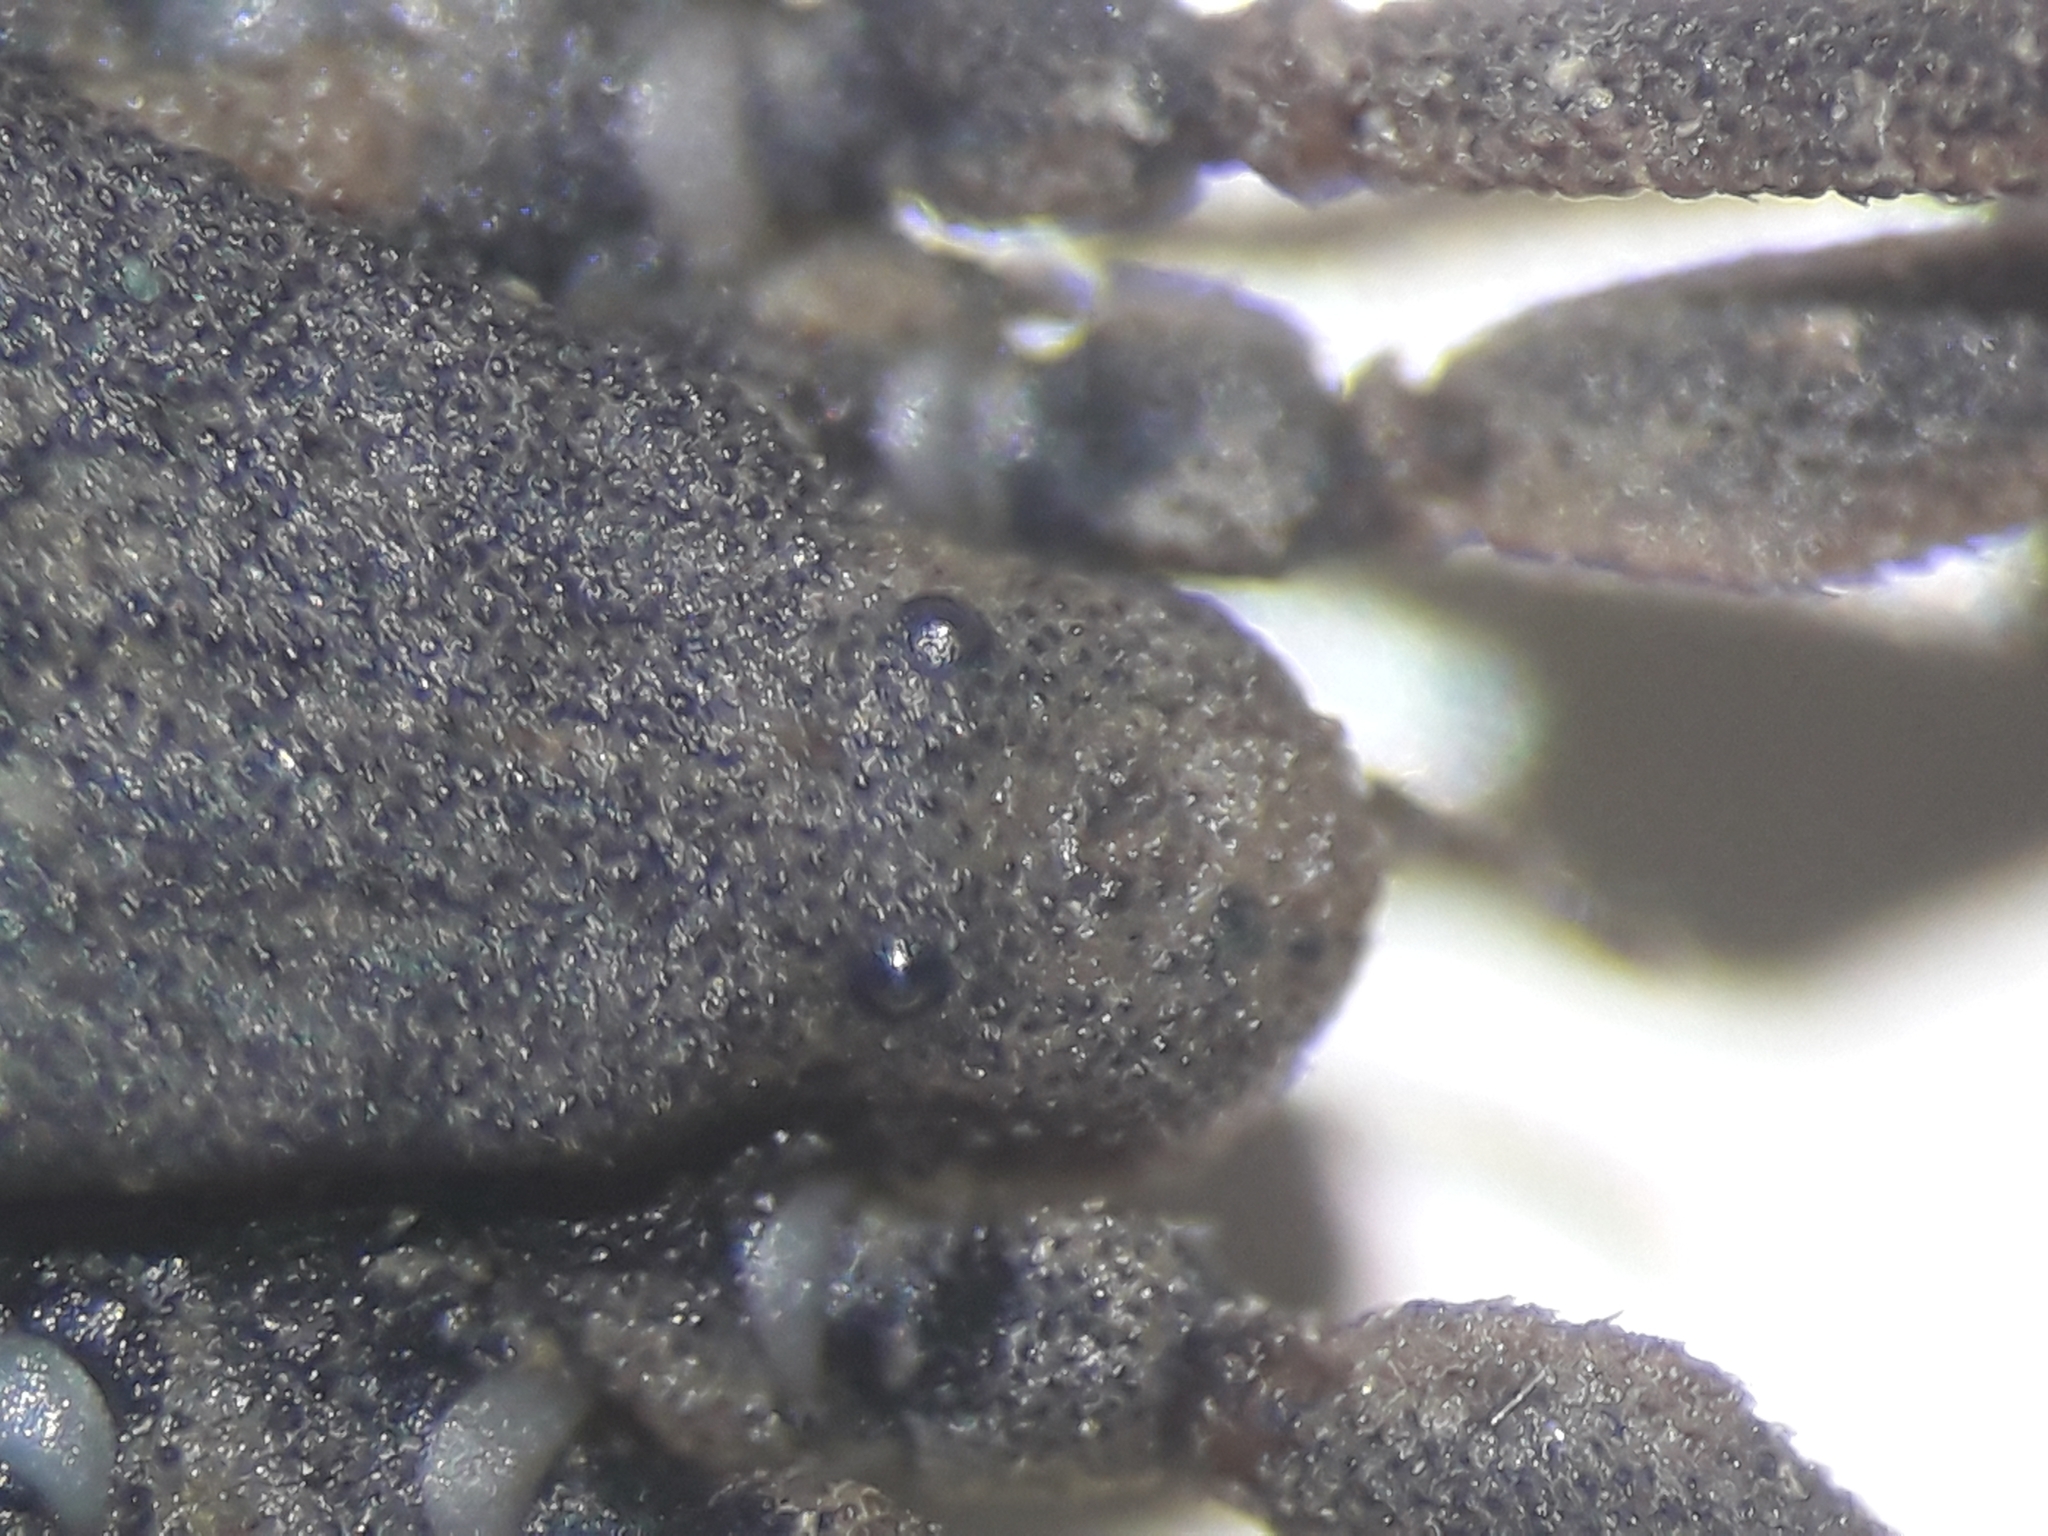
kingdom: Animalia
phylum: Arthropoda
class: Arachnida
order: Opiliones
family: Trogulidae
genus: Trogulus
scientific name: Trogulus closanicus
